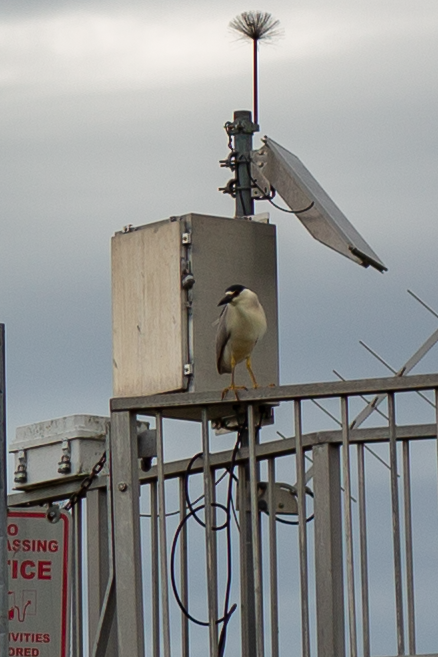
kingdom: Animalia
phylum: Chordata
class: Aves
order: Pelecaniformes
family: Ardeidae
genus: Nycticorax
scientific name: Nycticorax nycticorax
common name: Black-crowned night heron
